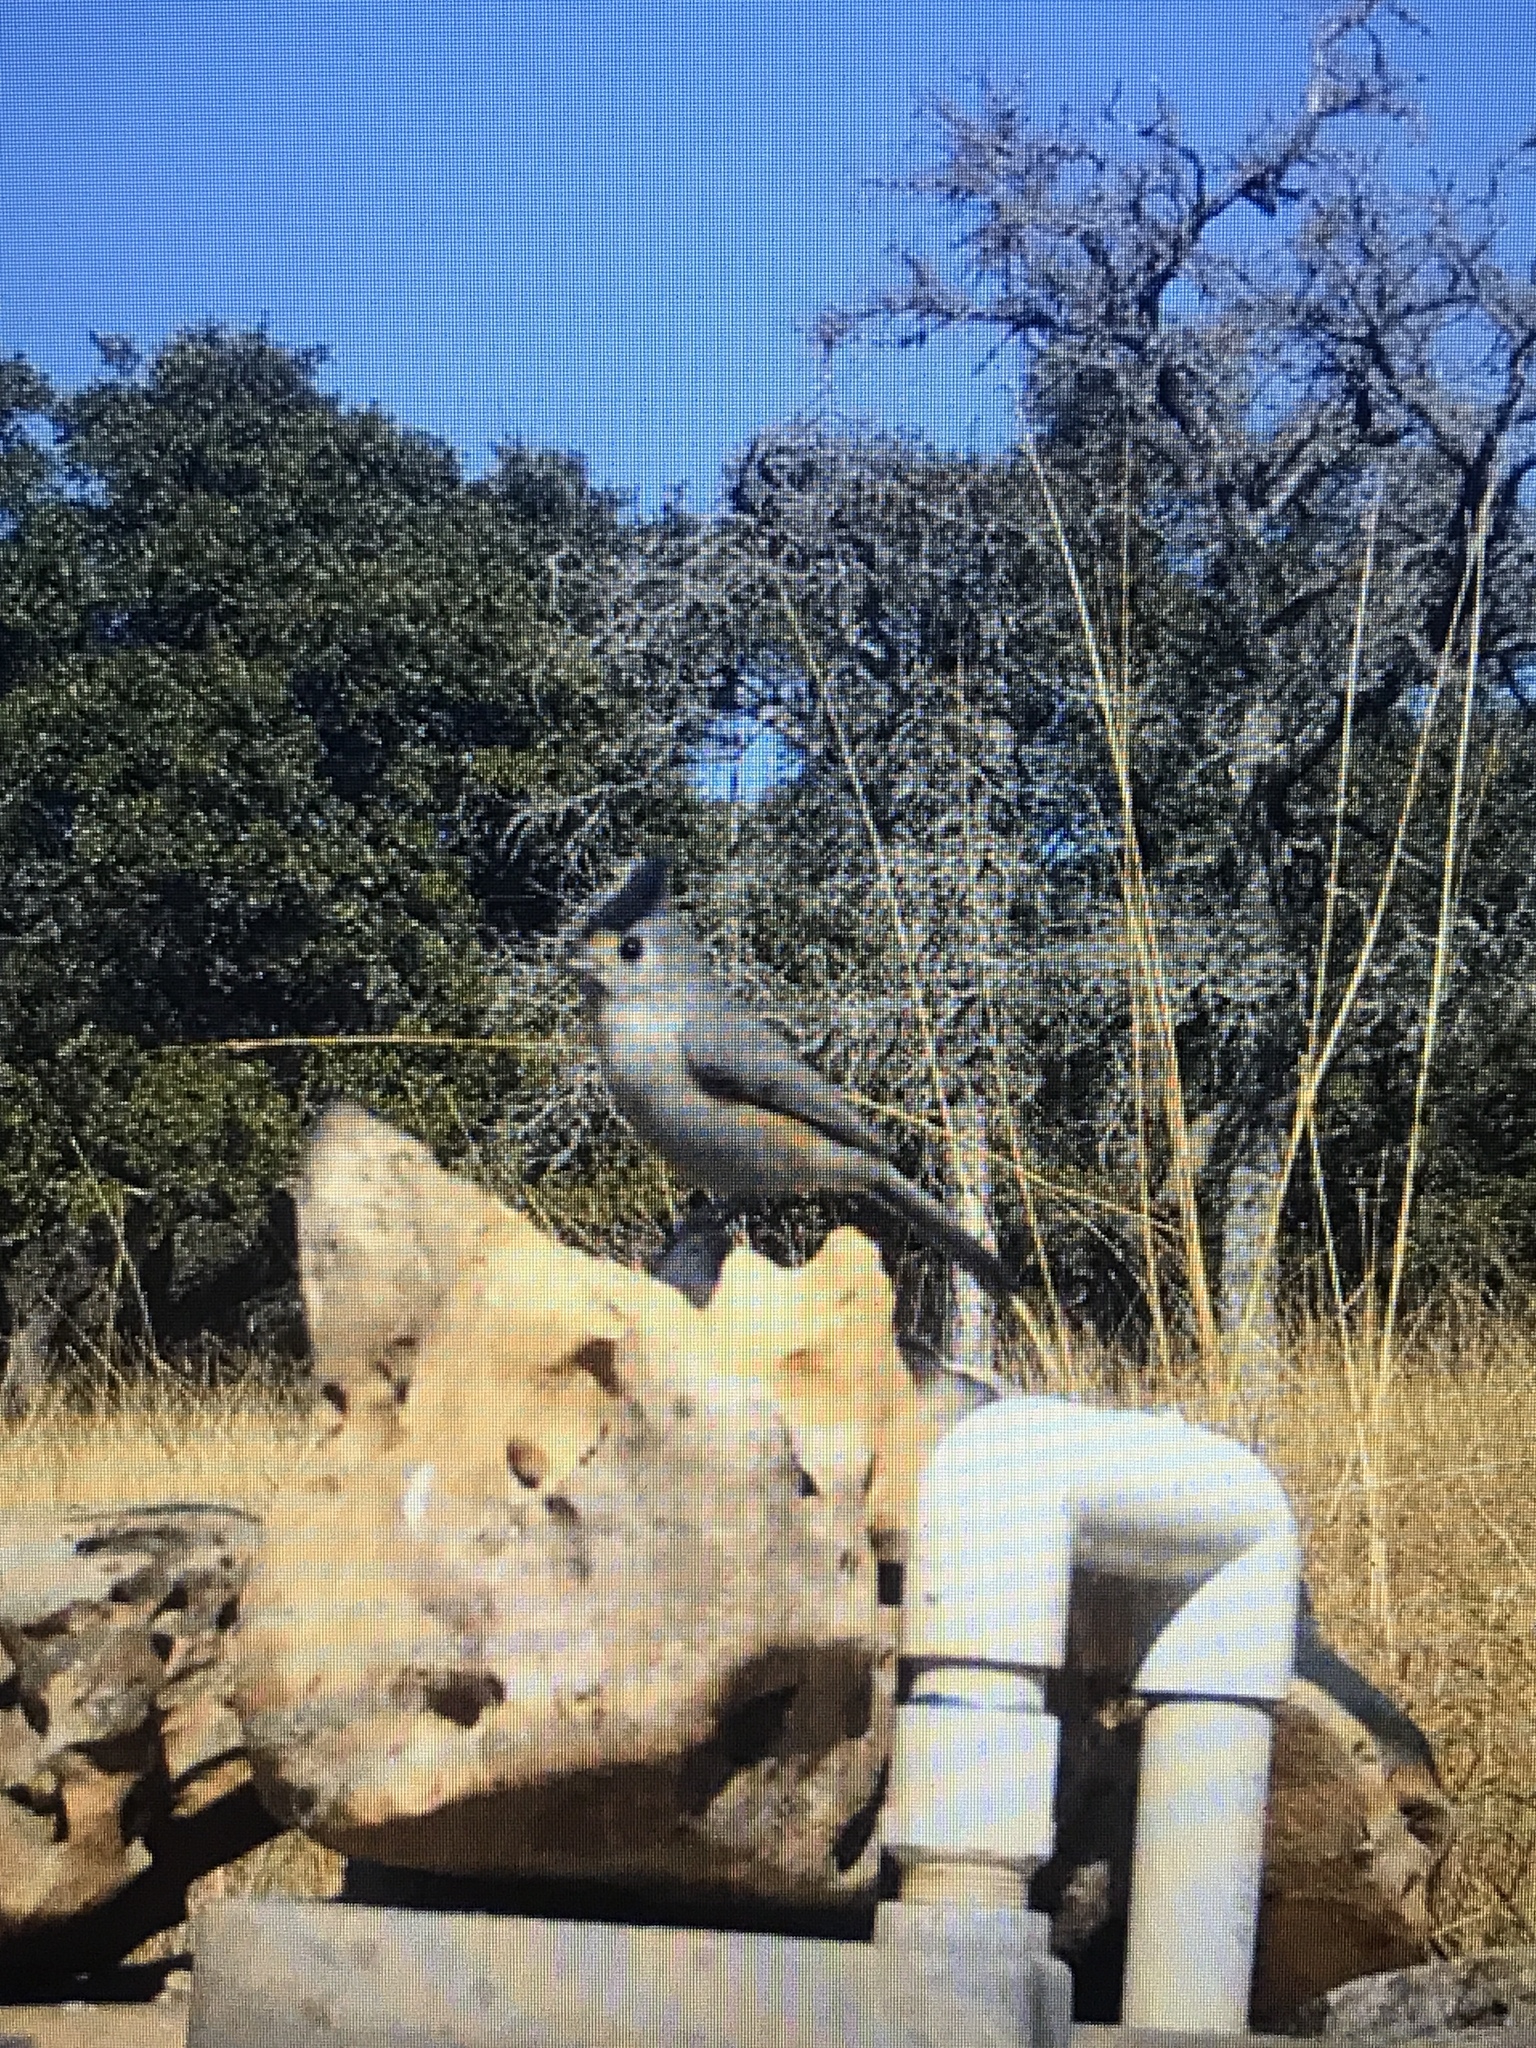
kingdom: Animalia
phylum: Chordata
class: Aves
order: Passeriformes
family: Paridae
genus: Baeolophus
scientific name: Baeolophus atricristatus
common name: Black-crested titmouse
